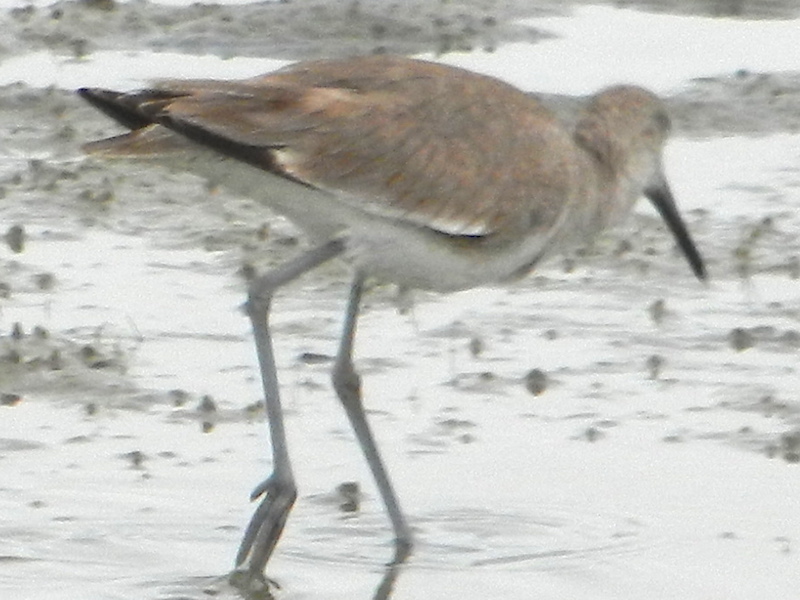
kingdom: Animalia
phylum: Chordata
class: Aves
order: Charadriiformes
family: Scolopacidae
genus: Tringa
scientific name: Tringa semipalmata
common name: Willet
